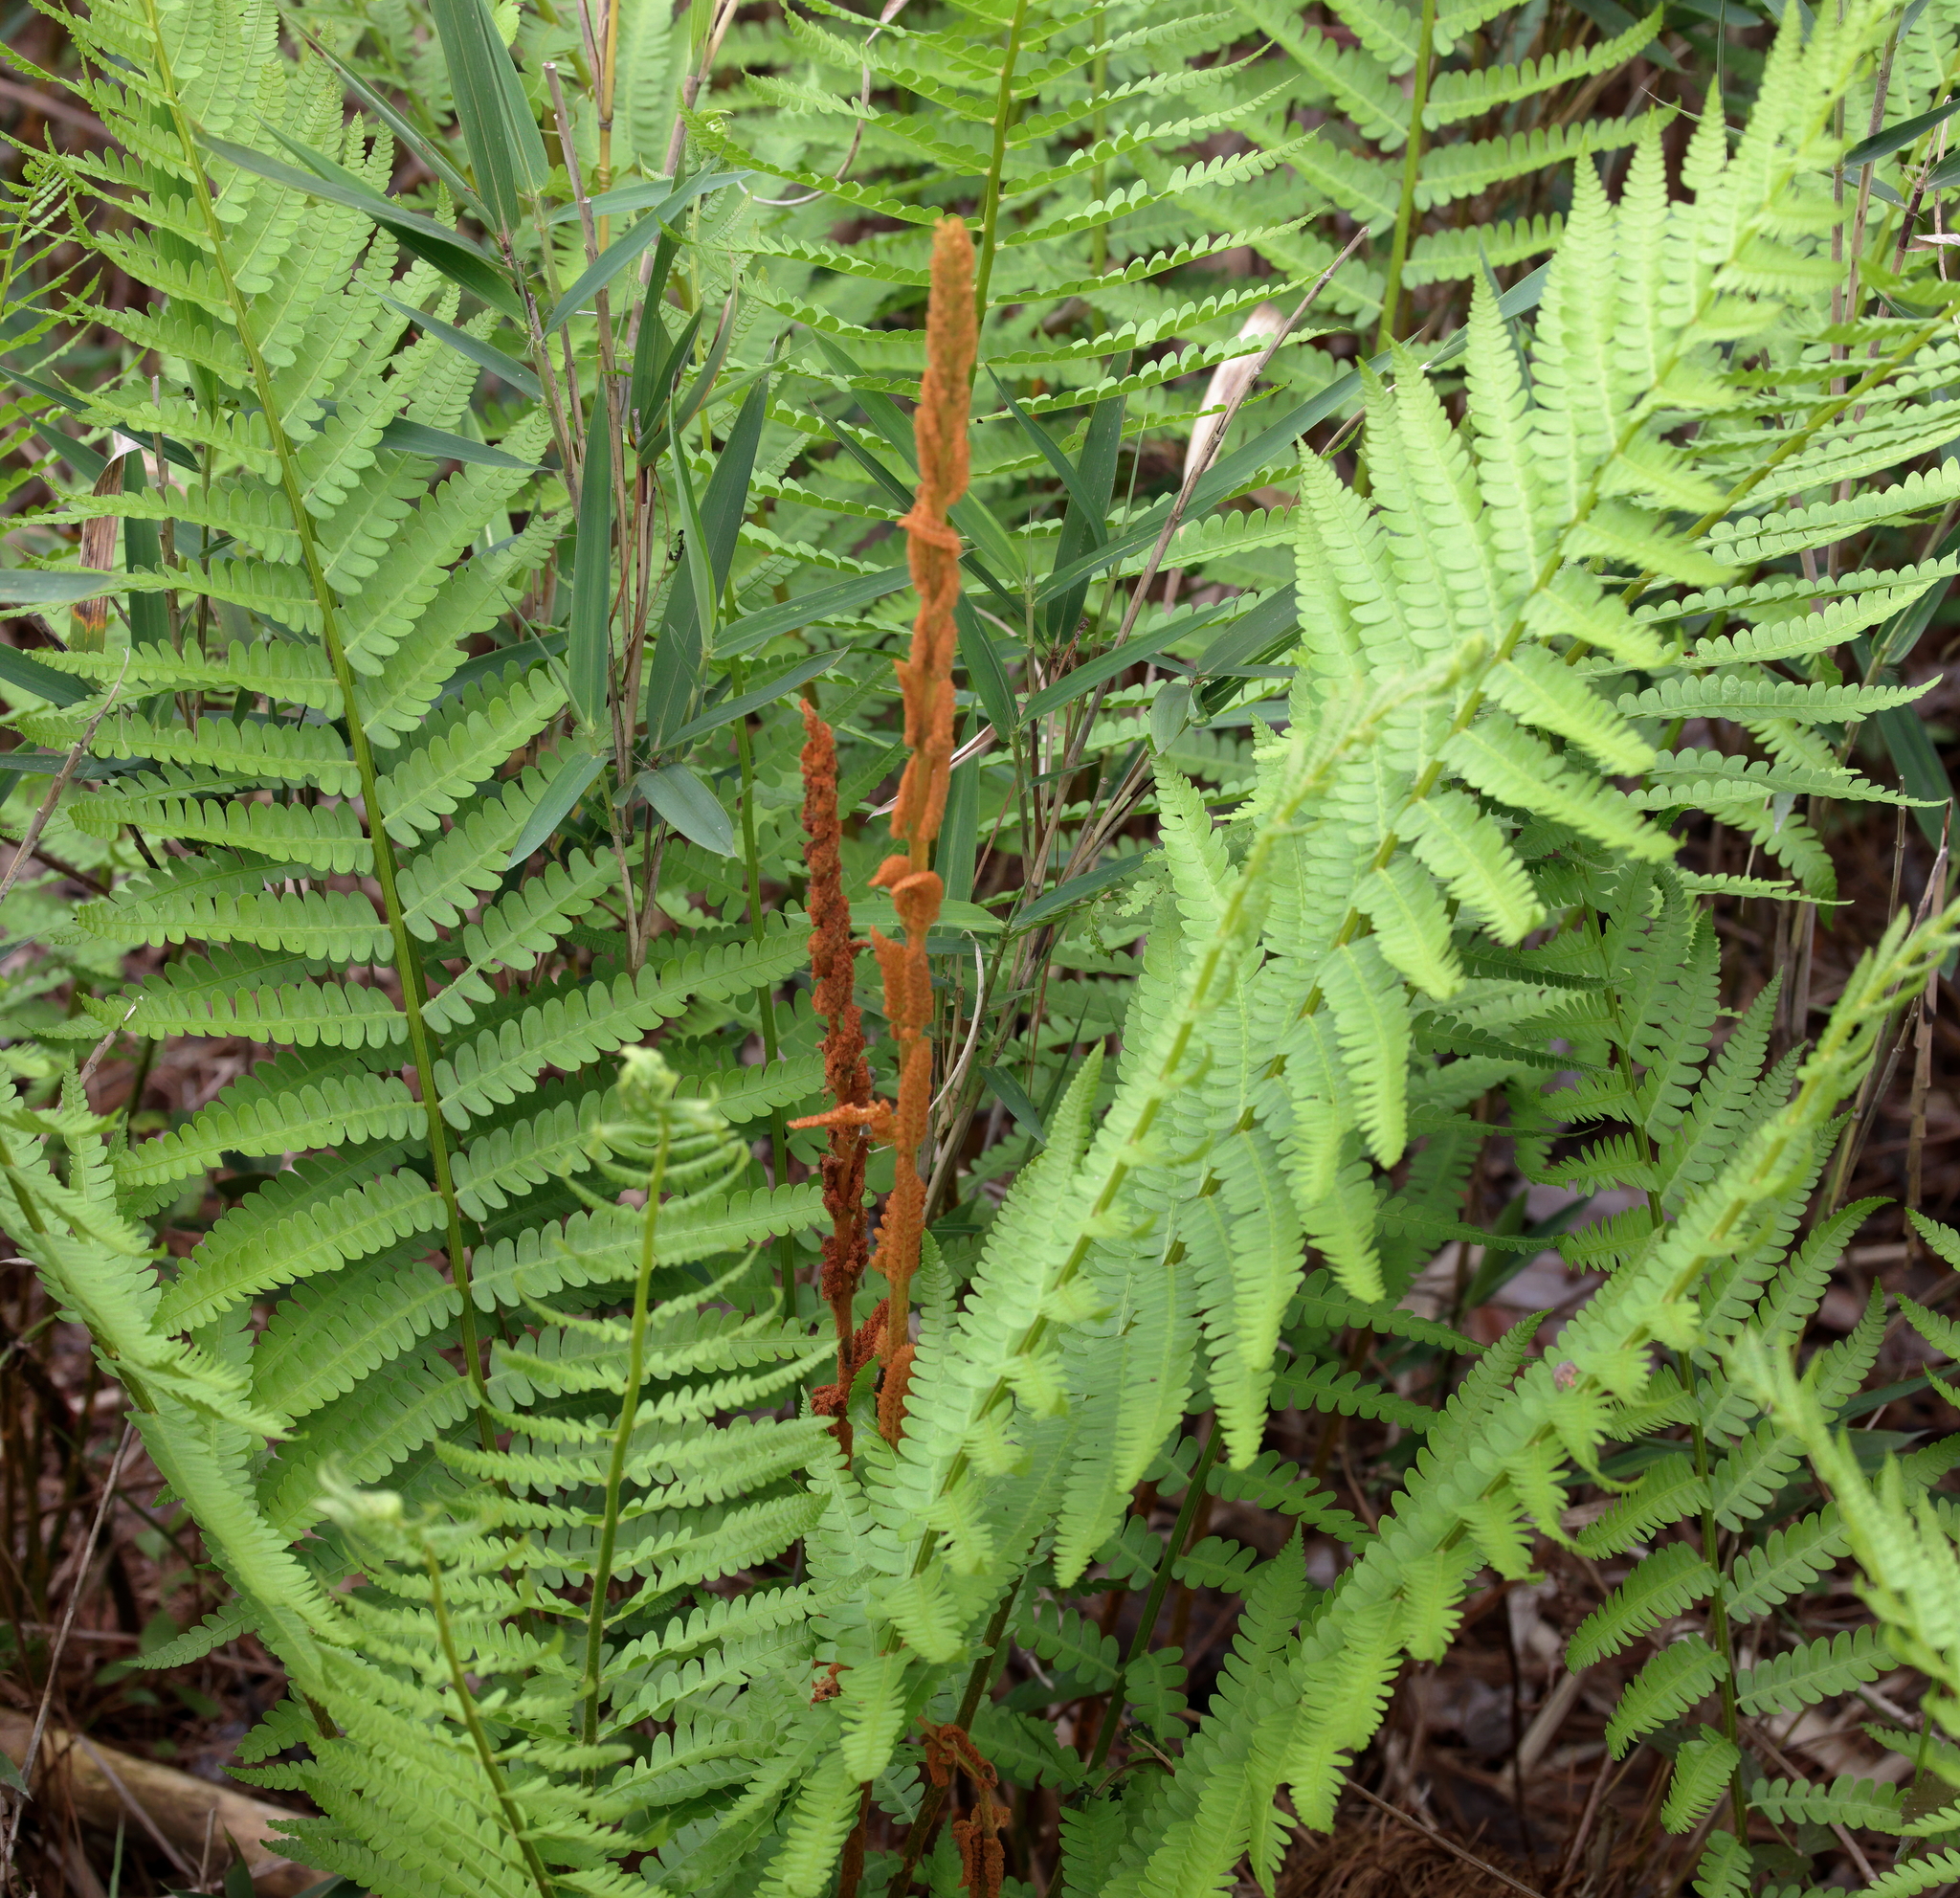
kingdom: Plantae
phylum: Tracheophyta
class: Polypodiopsida
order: Osmundales
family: Osmundaceae
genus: Osmundastrum
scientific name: Osmundastrum cinnamomeum
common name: Cinnamon fern
